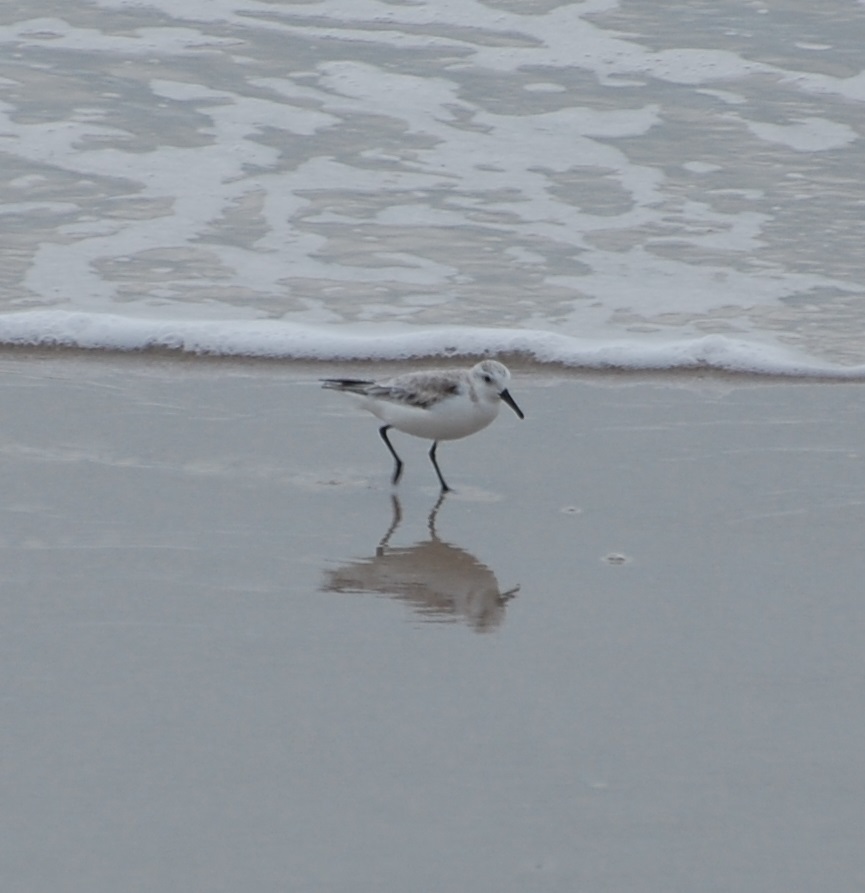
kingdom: Animalia
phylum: Chordata
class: Aves
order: Charadriiformes
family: Scolopacidae
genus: Calidris
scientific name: Calidris alba
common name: Sanderling
